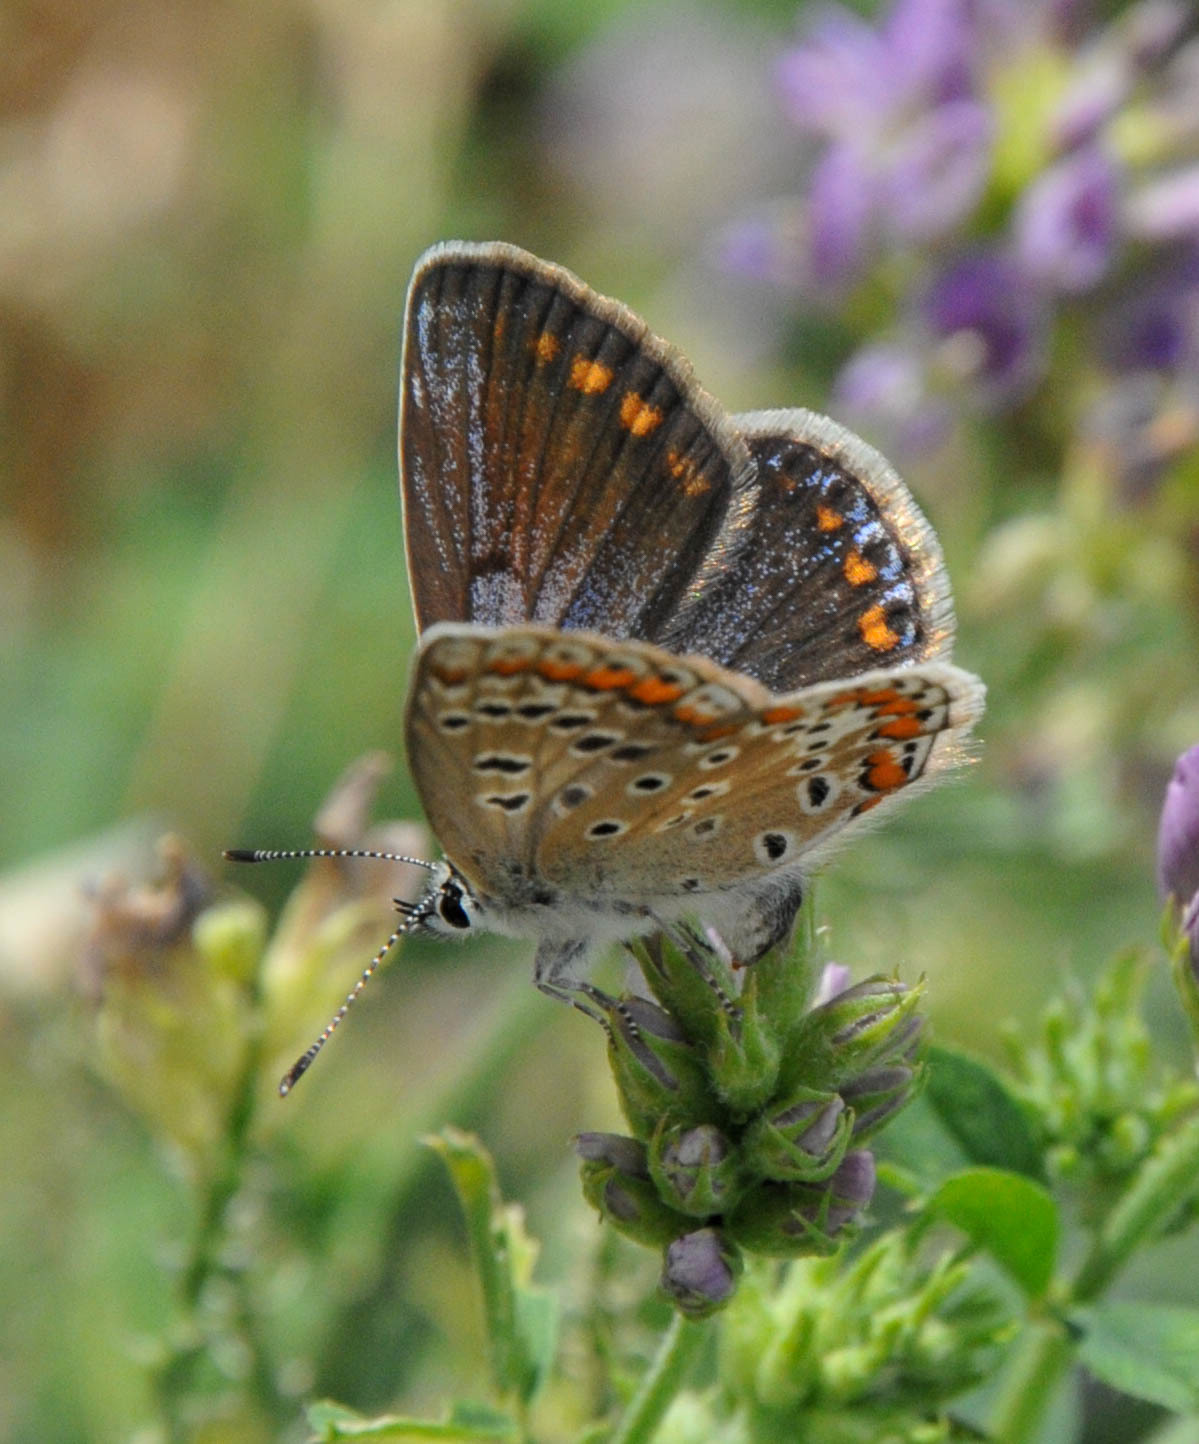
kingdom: Animalia
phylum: Arthropoda
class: Insecta
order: Lepidoptera
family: Lycaenidae
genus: Polyommatus
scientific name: Polyommatus icarus
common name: Common blue
